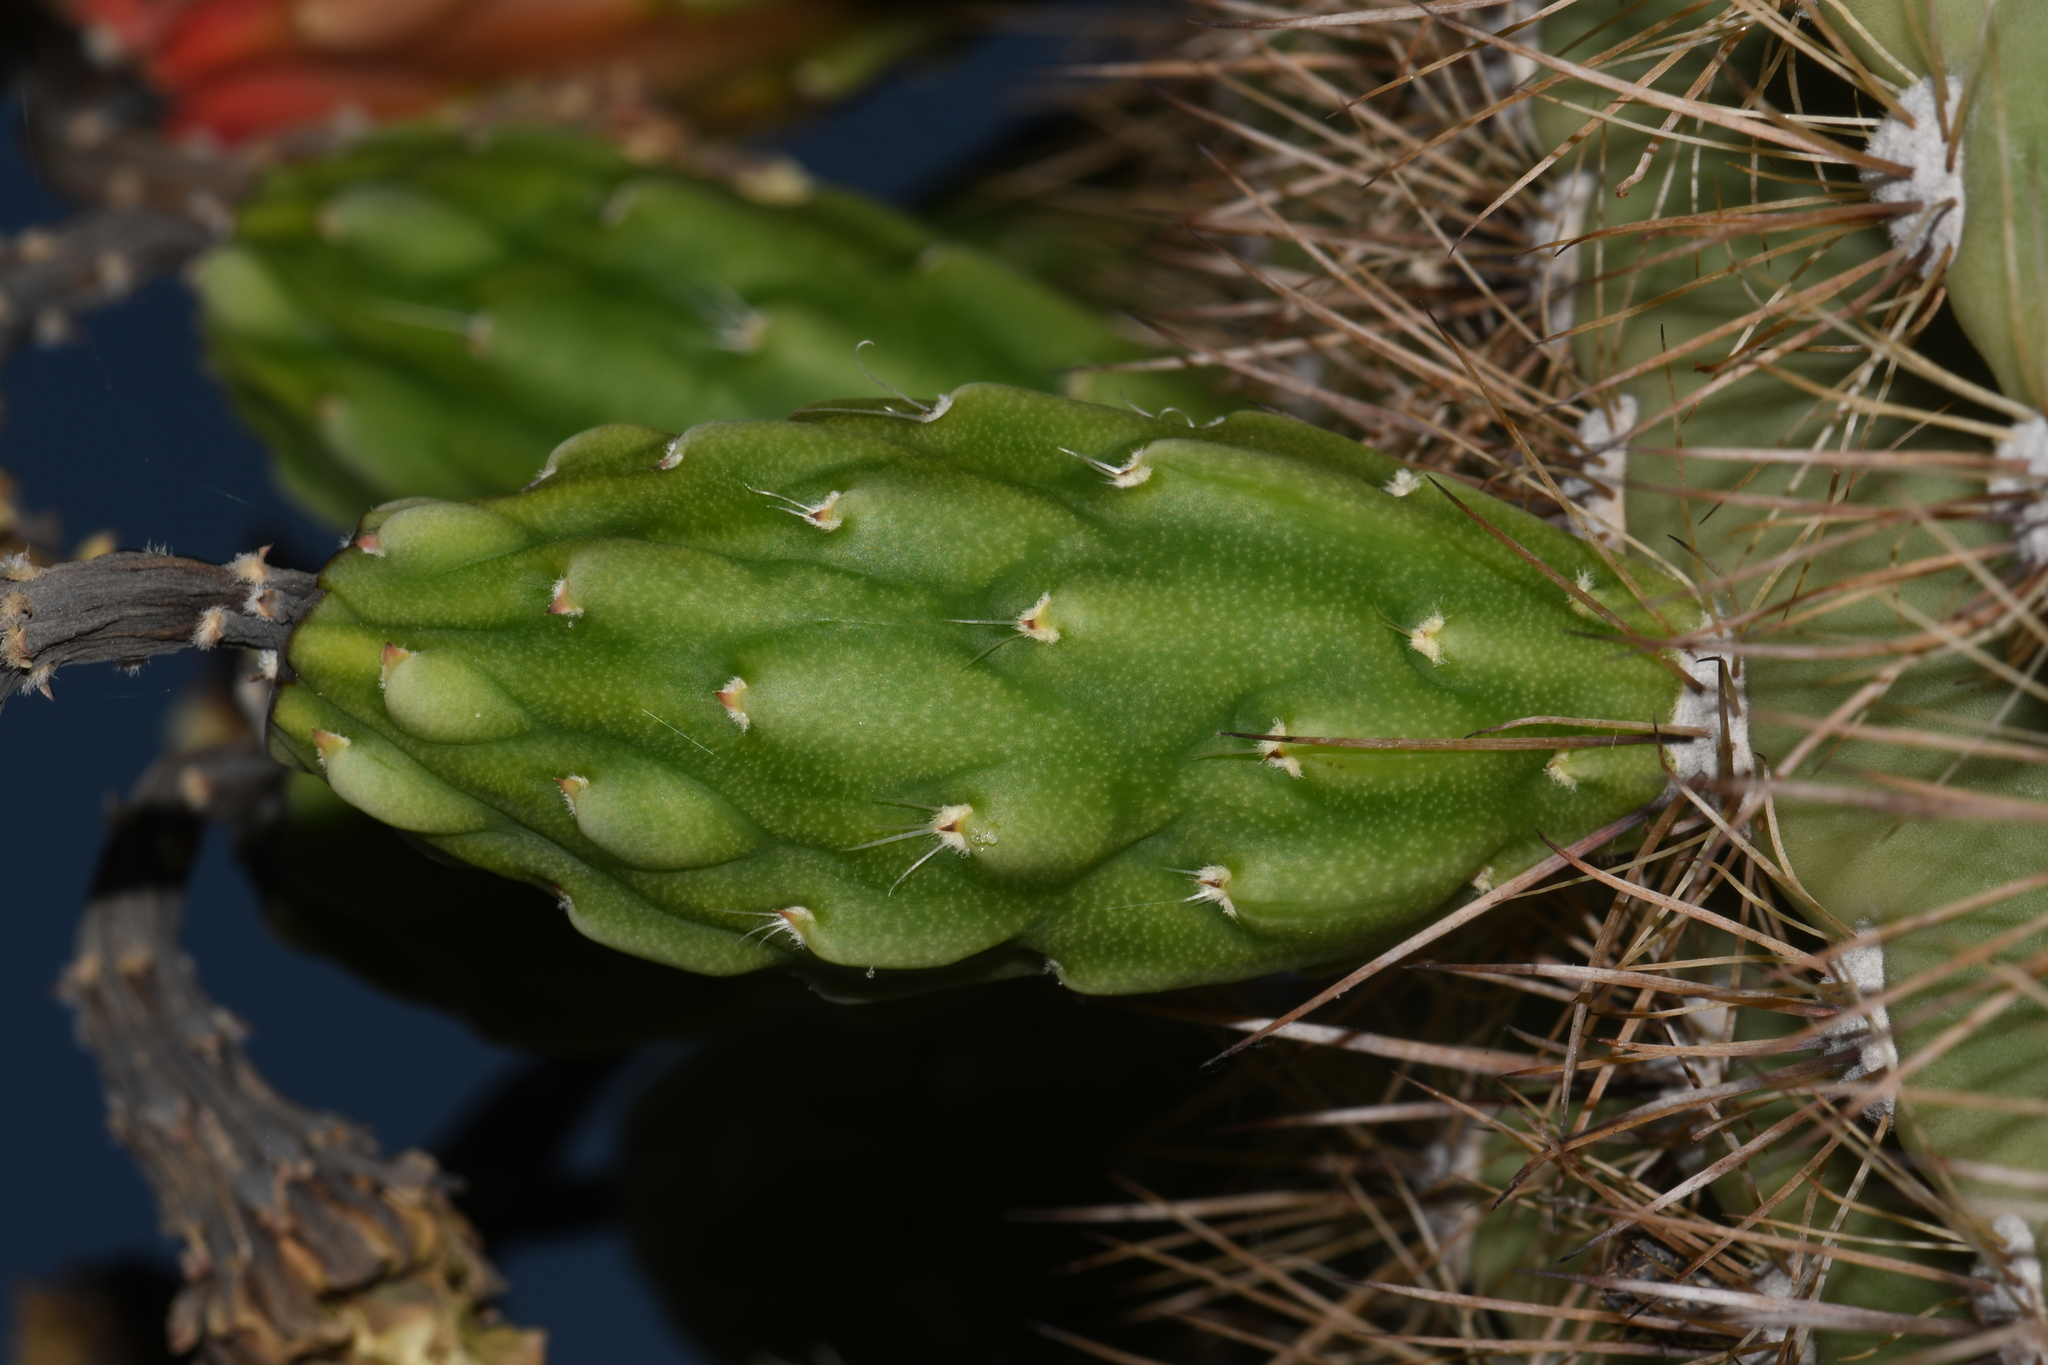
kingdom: Plantae
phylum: Tracheophyta
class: Magnoliopsida
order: Caryophyllales
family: Cactaceae
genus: Carnegiea
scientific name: Carnegiea gigantea
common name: Saguaro
